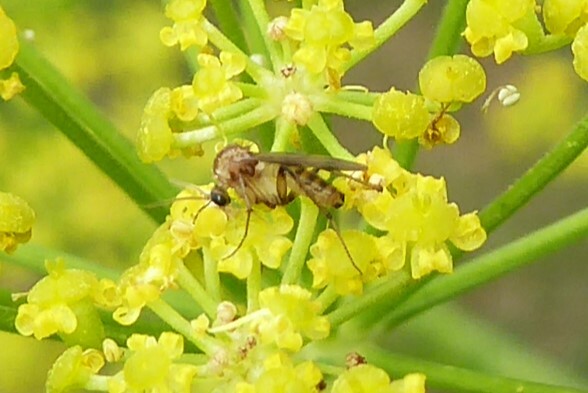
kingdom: Animalia
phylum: Arthropoda
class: Insecta
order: Diptera
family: Mycetophilidae
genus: Anomalomyia
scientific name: Anomalomyia guttata
